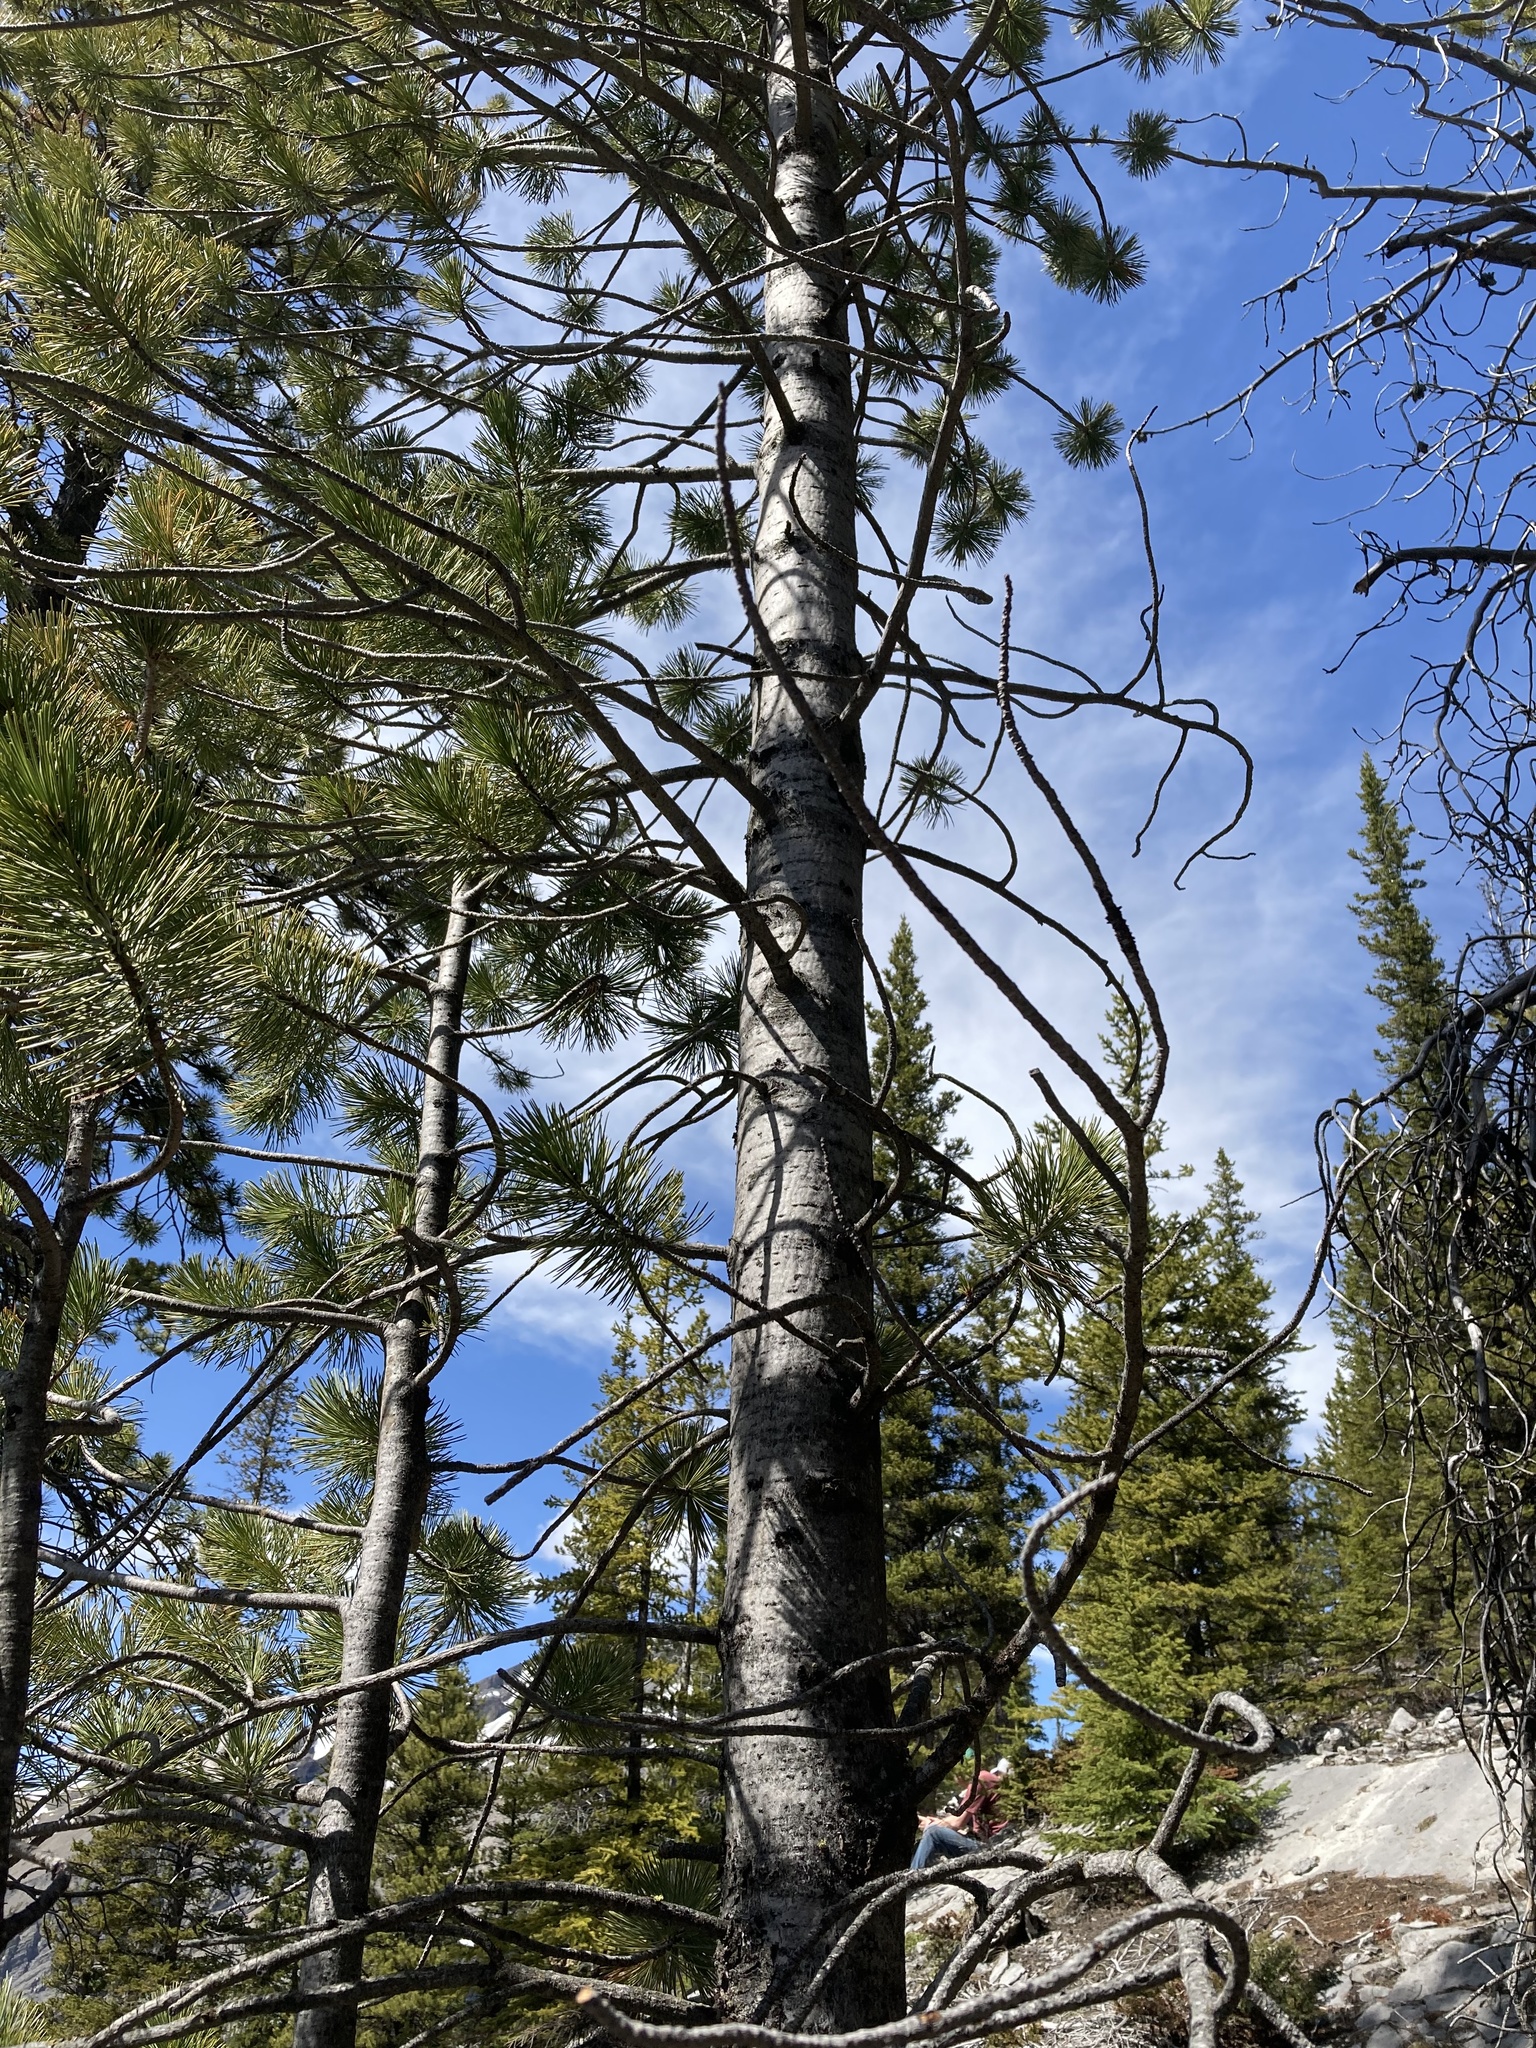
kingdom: Plantae
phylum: Tracheophyta
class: Pinopsida
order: Pinales
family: Pinaceae
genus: Pinus
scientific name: Pinus albicaulis
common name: Whitebark pine
